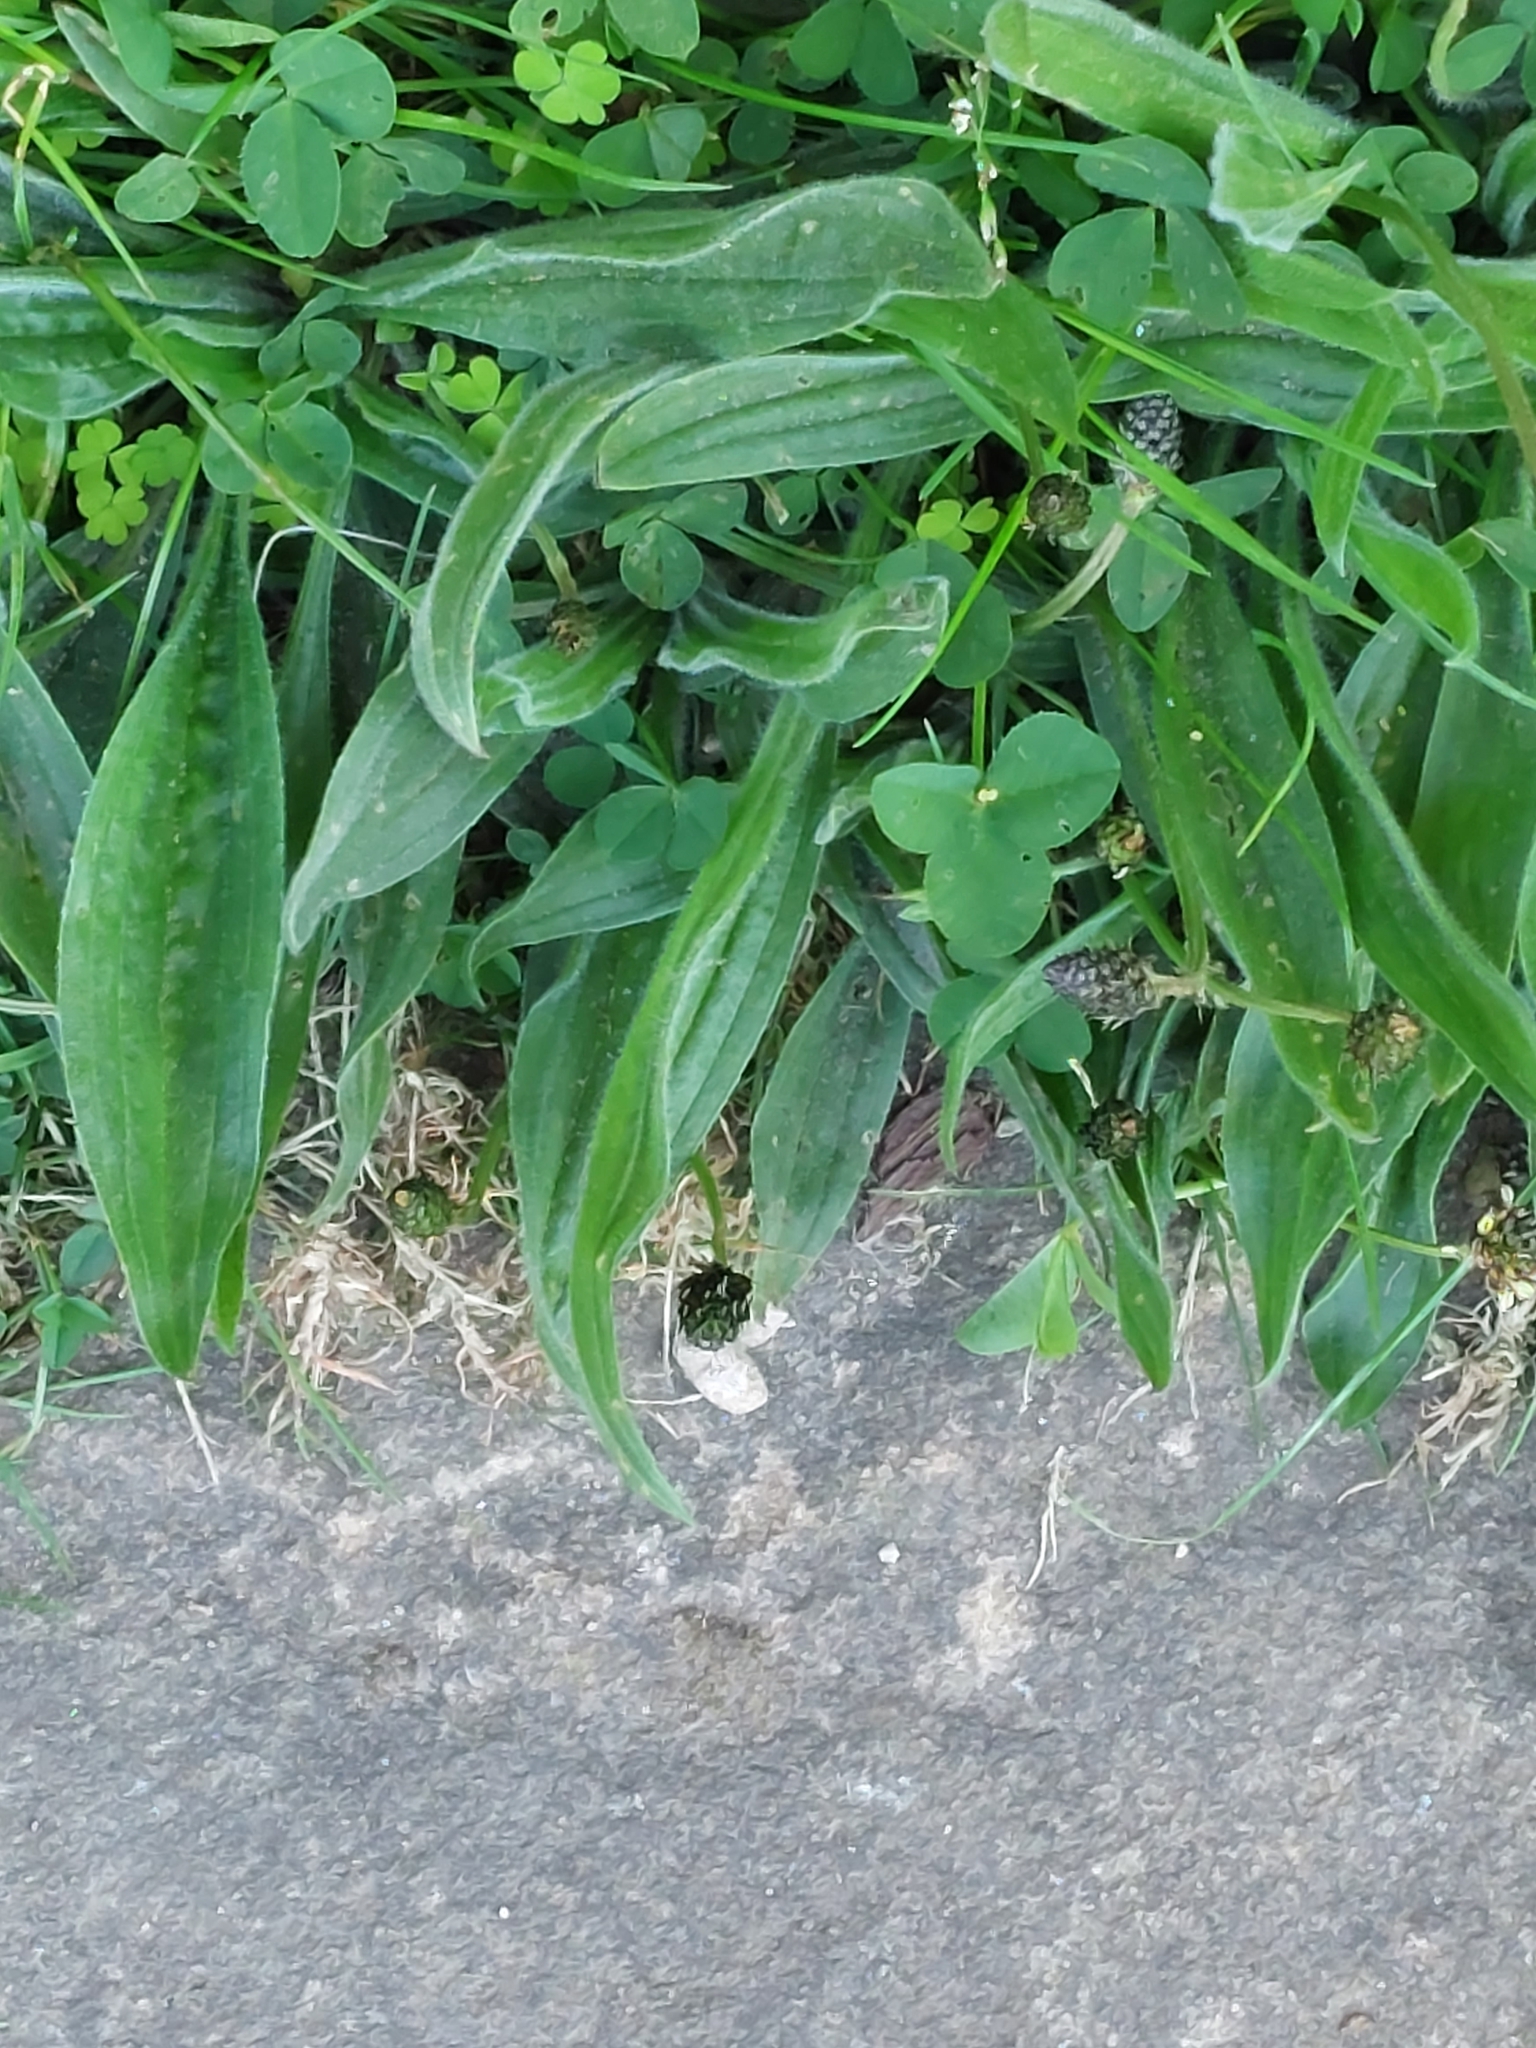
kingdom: Plantae
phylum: Tracheophyta
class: Magnoliopsida
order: Lamiales
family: Plantaginaceae
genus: Plantago
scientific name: Plantago lanceolata
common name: Ribwort plantain
